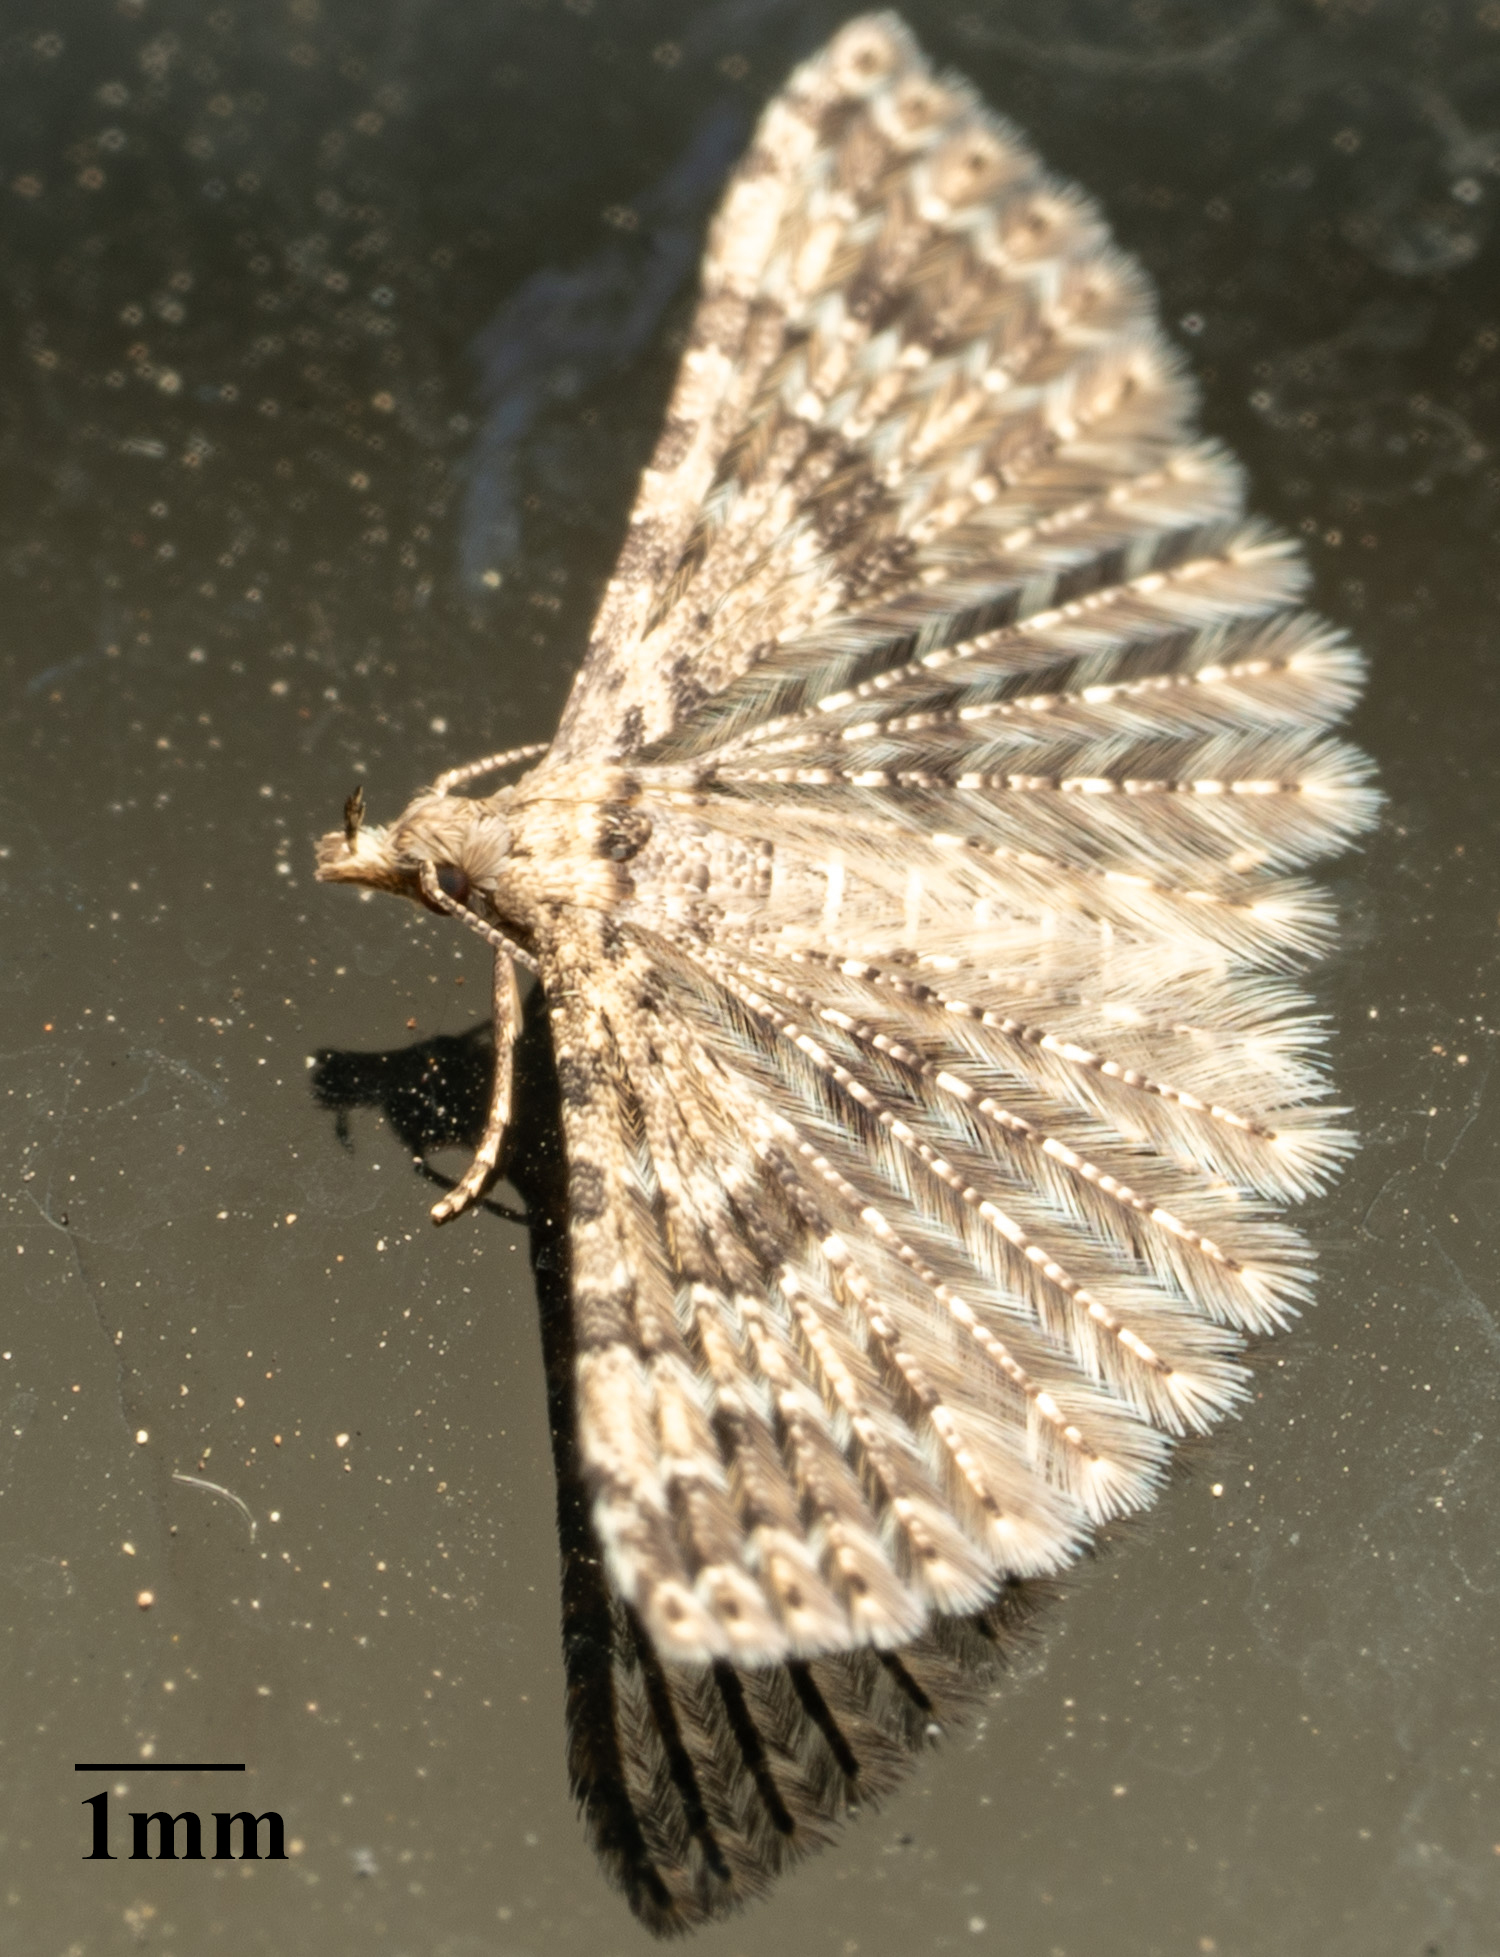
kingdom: Animalia
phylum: Arthropoda
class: Insecta
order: Lepidoptera
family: Alucitidae
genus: Alucita
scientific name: Alucita montana
